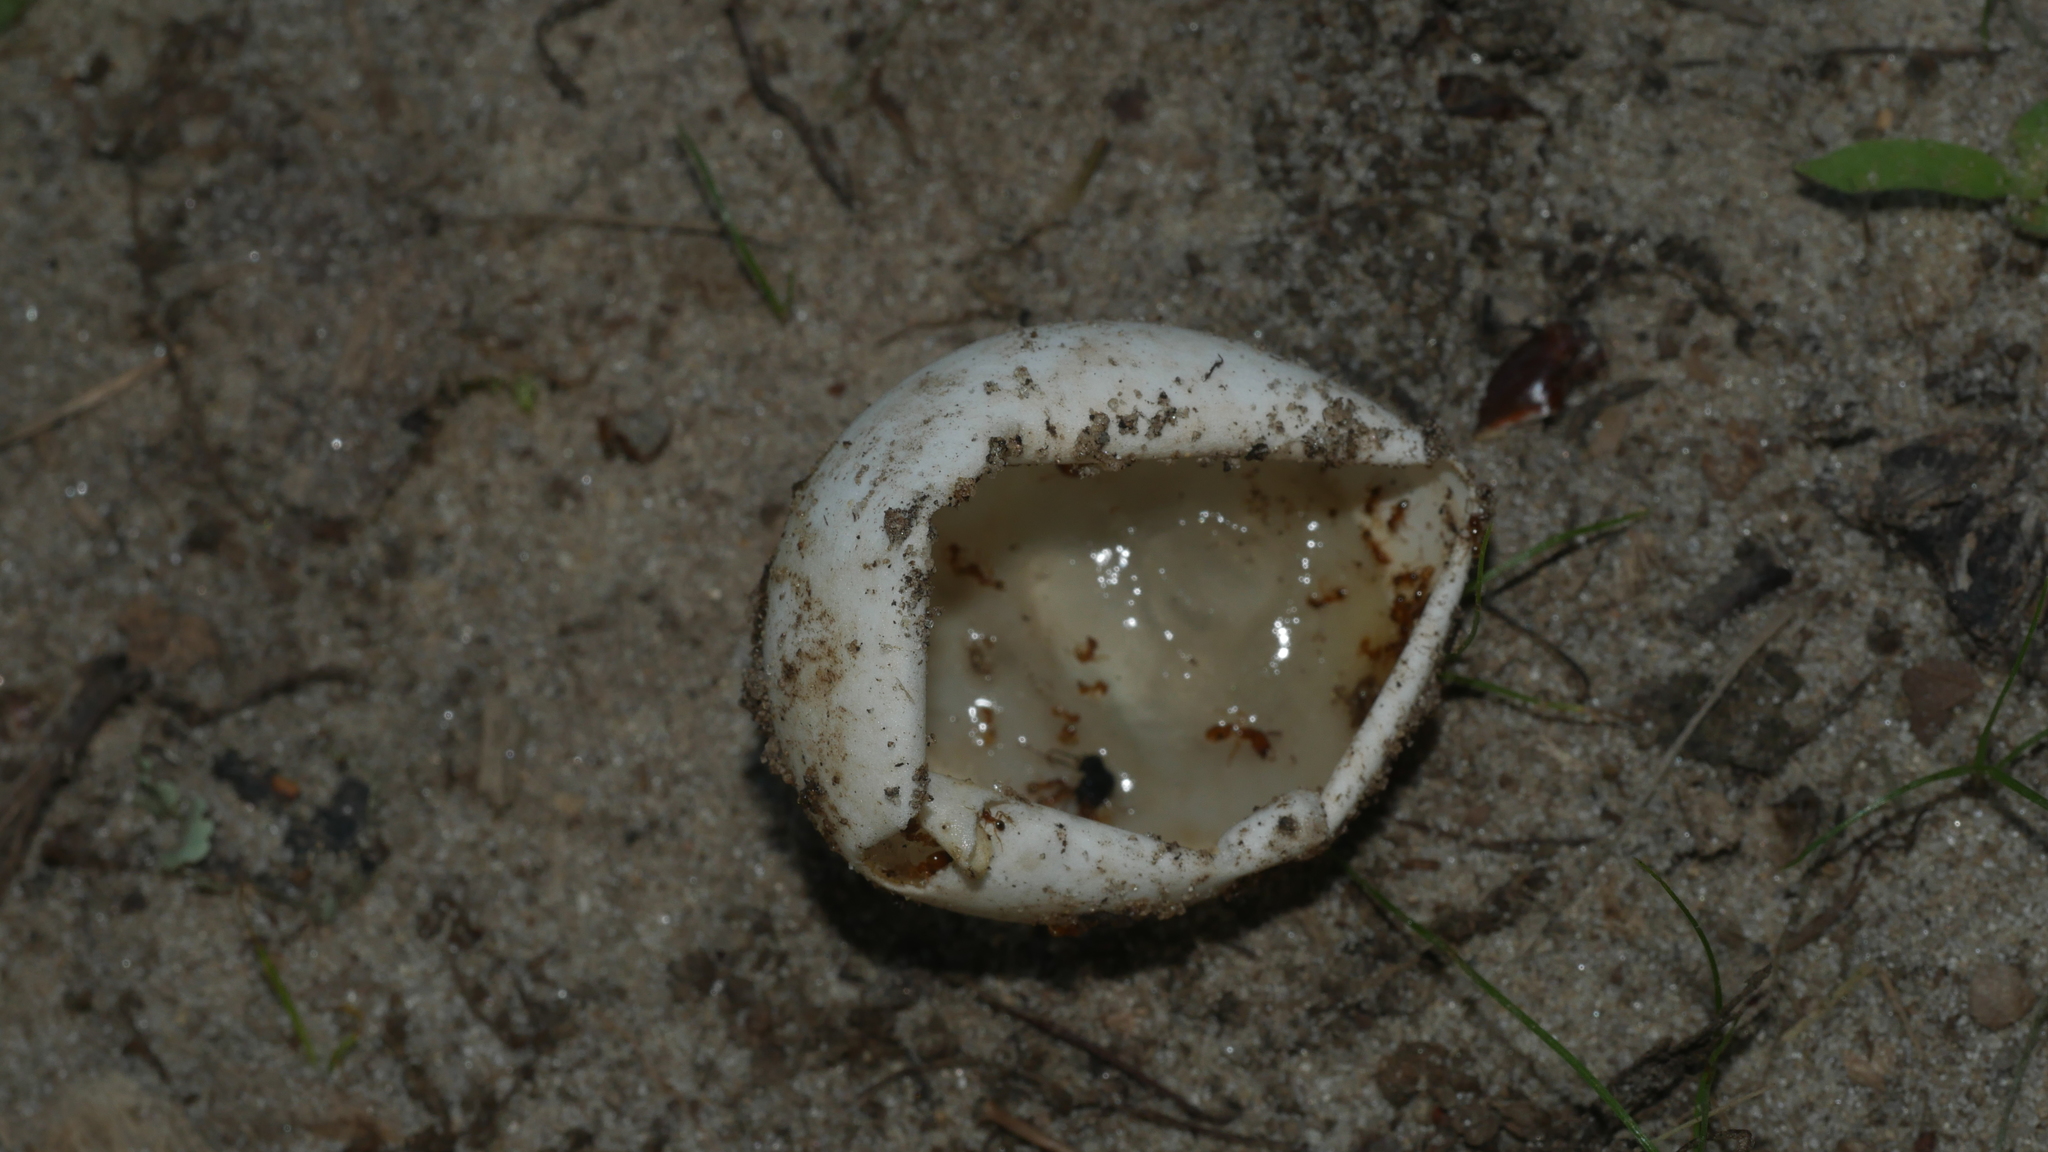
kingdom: Animalia
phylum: Chordata
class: Testudines
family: Chelydridae
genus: Chelydra
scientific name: Chelydra serpentina
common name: Common snapping turtle
